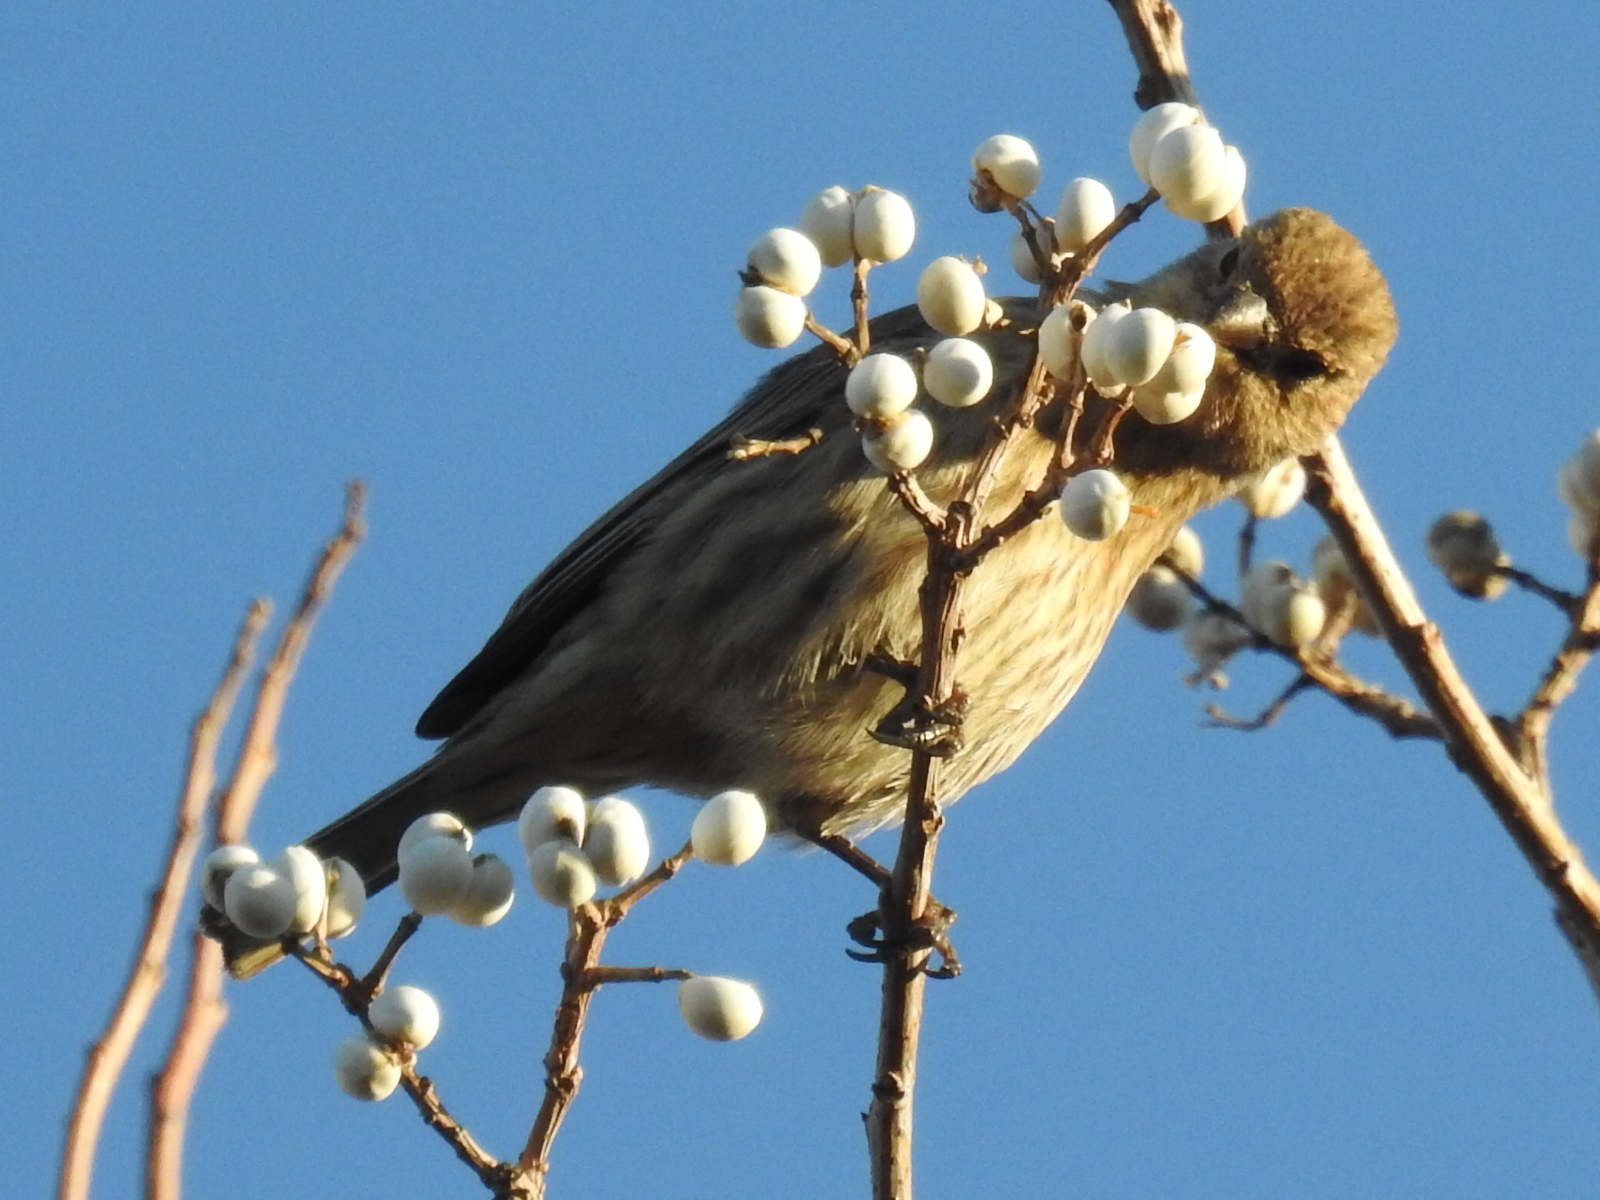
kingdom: Animalia
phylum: Chordata
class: Aves
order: Passeriformes
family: Fringillidae
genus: Haemorhous
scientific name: Haemorhous mexicanus
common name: House finch
